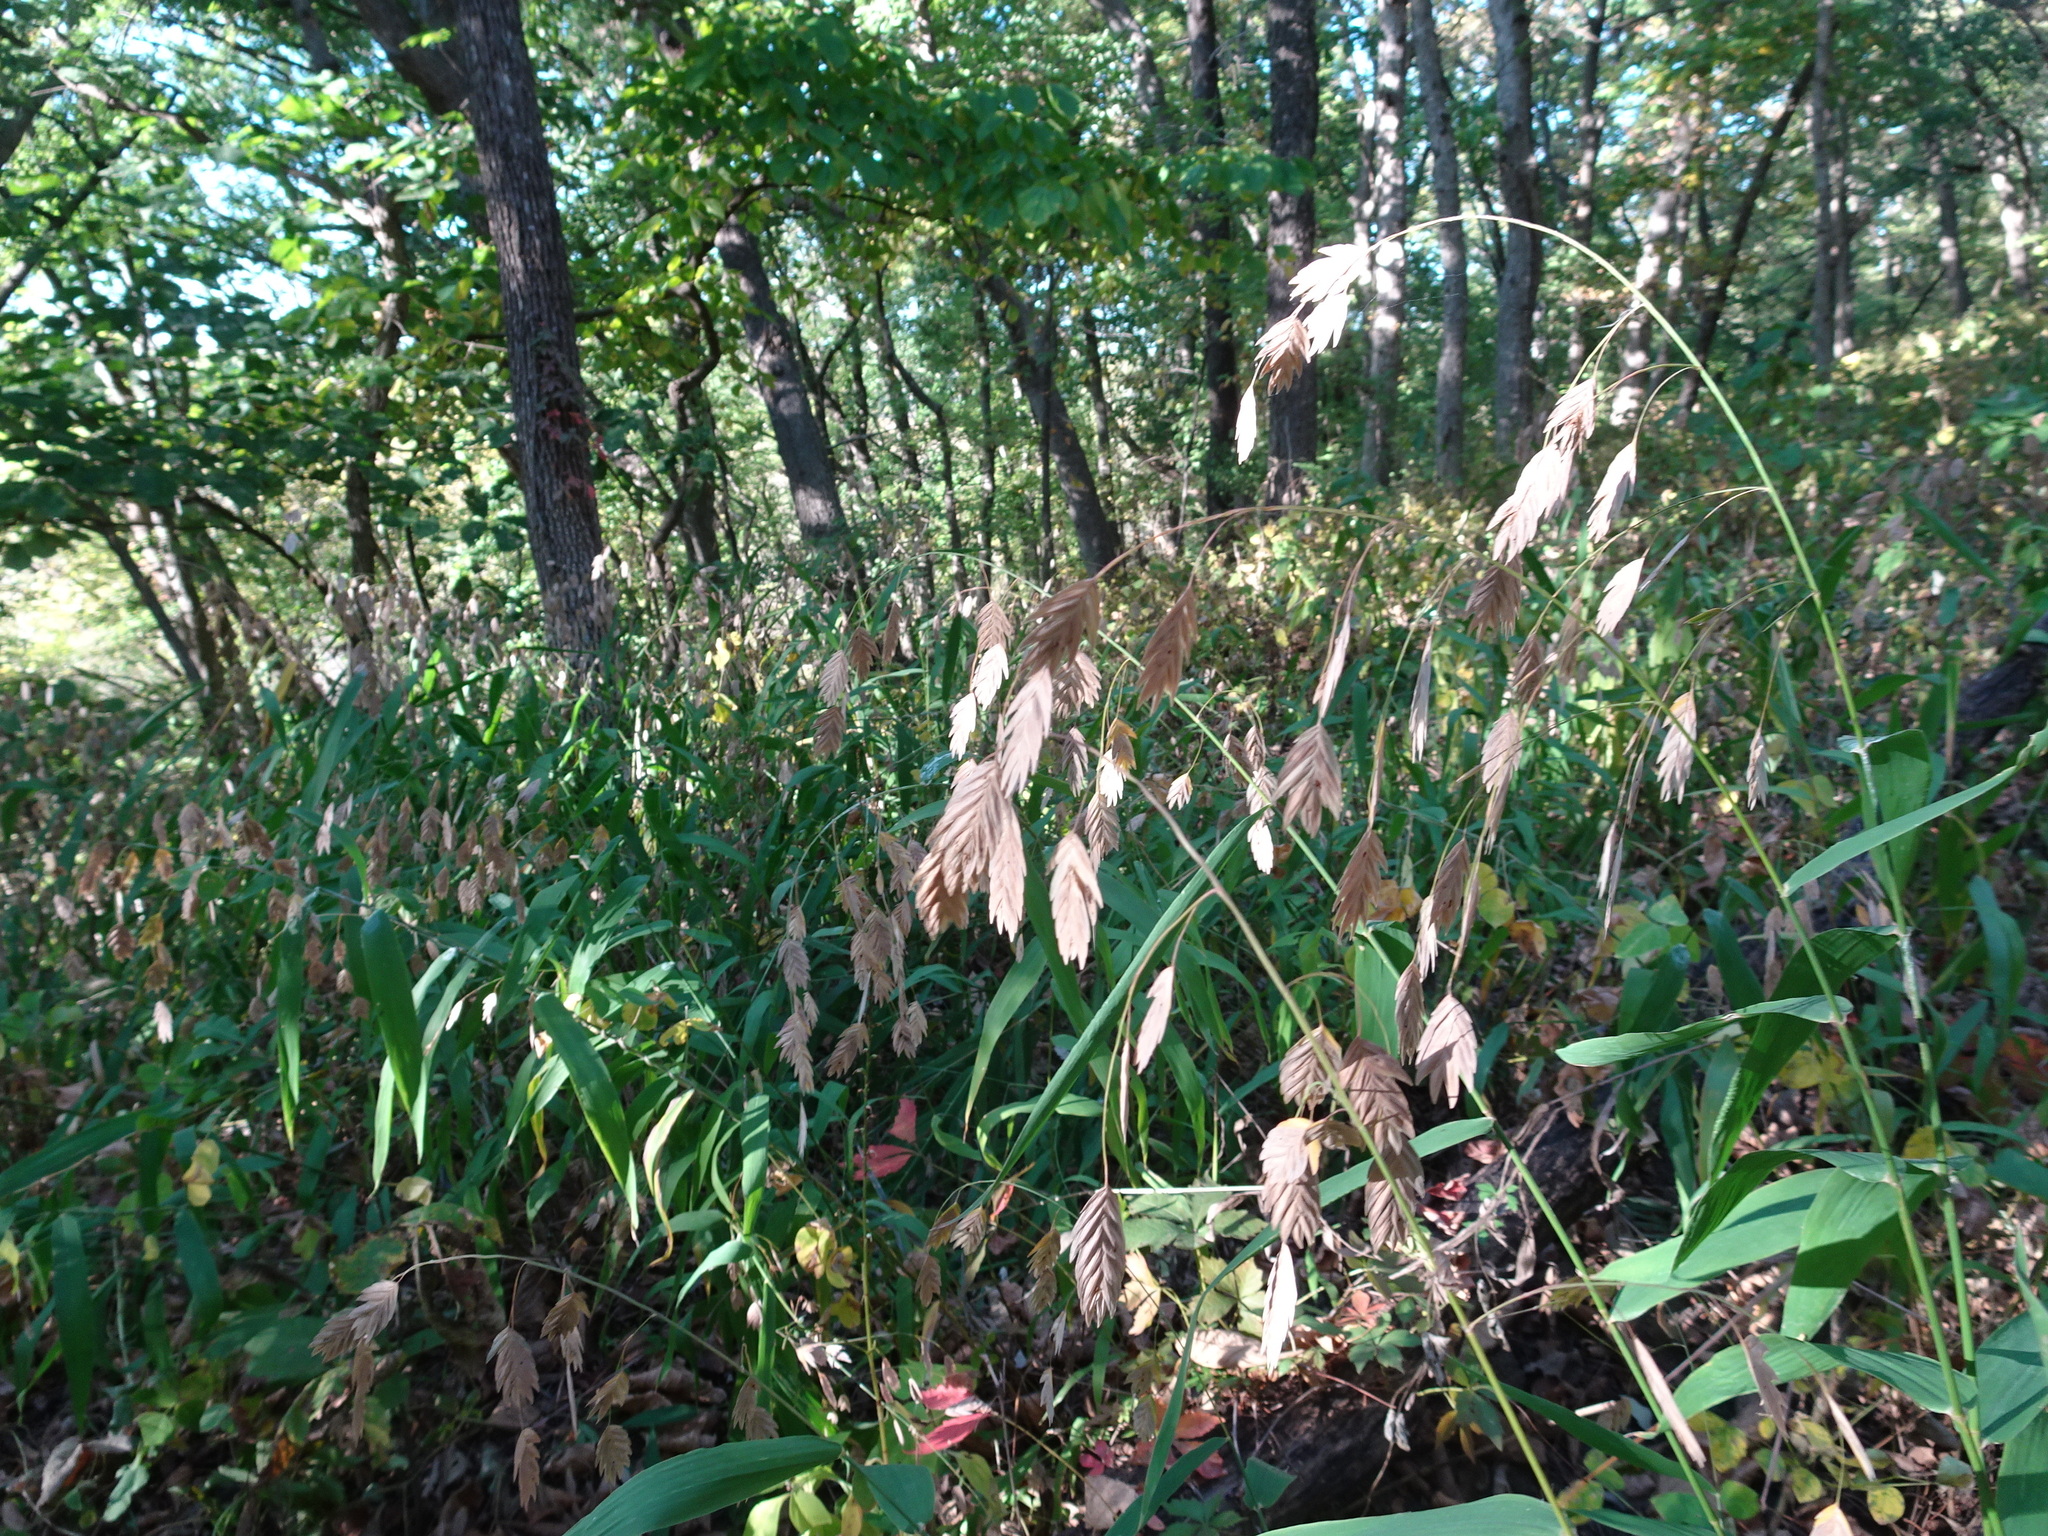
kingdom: Plantae
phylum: Tracheophyta
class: Liliopsida
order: Poales
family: Poaceae
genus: Chasmanthium
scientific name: Chasmanthium latifolium
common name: Broad-leaved chasmanthium
